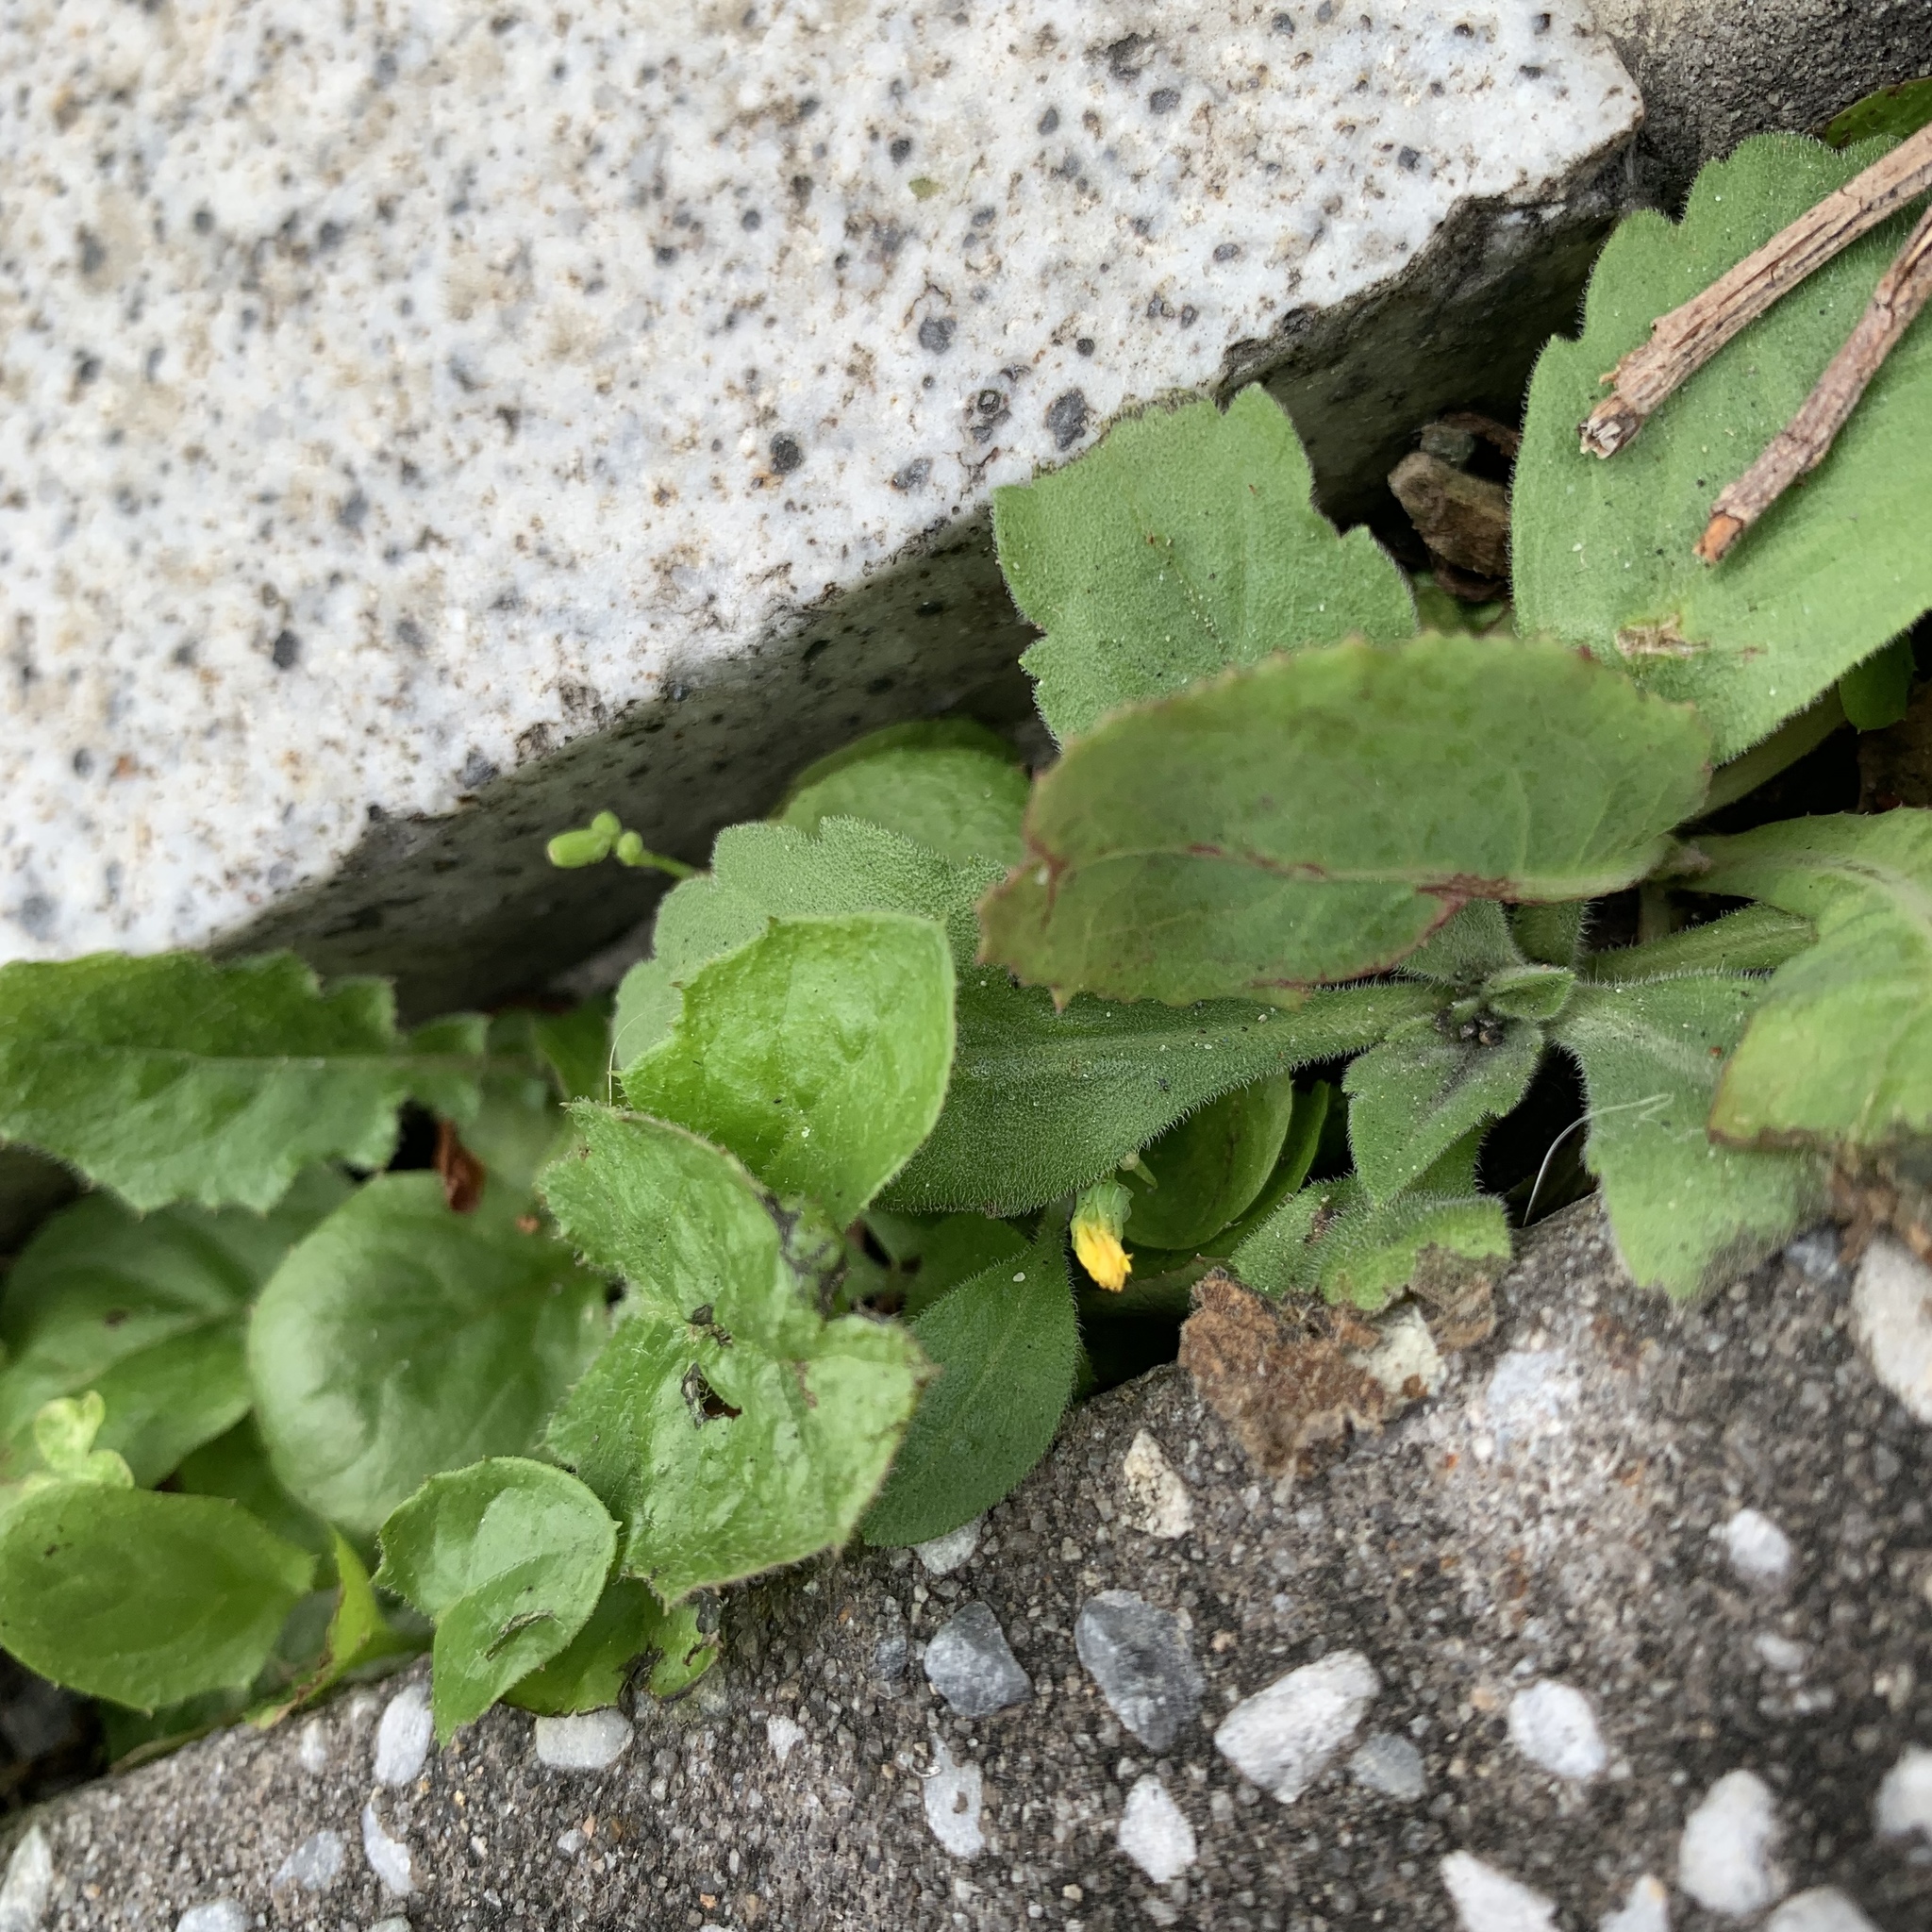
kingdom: Plantae
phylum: Tracheophyta
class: Magnoliopsida
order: Oxalidales
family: Oxalidaceae
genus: Oxalis
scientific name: Oxalis corniculata
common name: Procumbent yellow-sorrel
